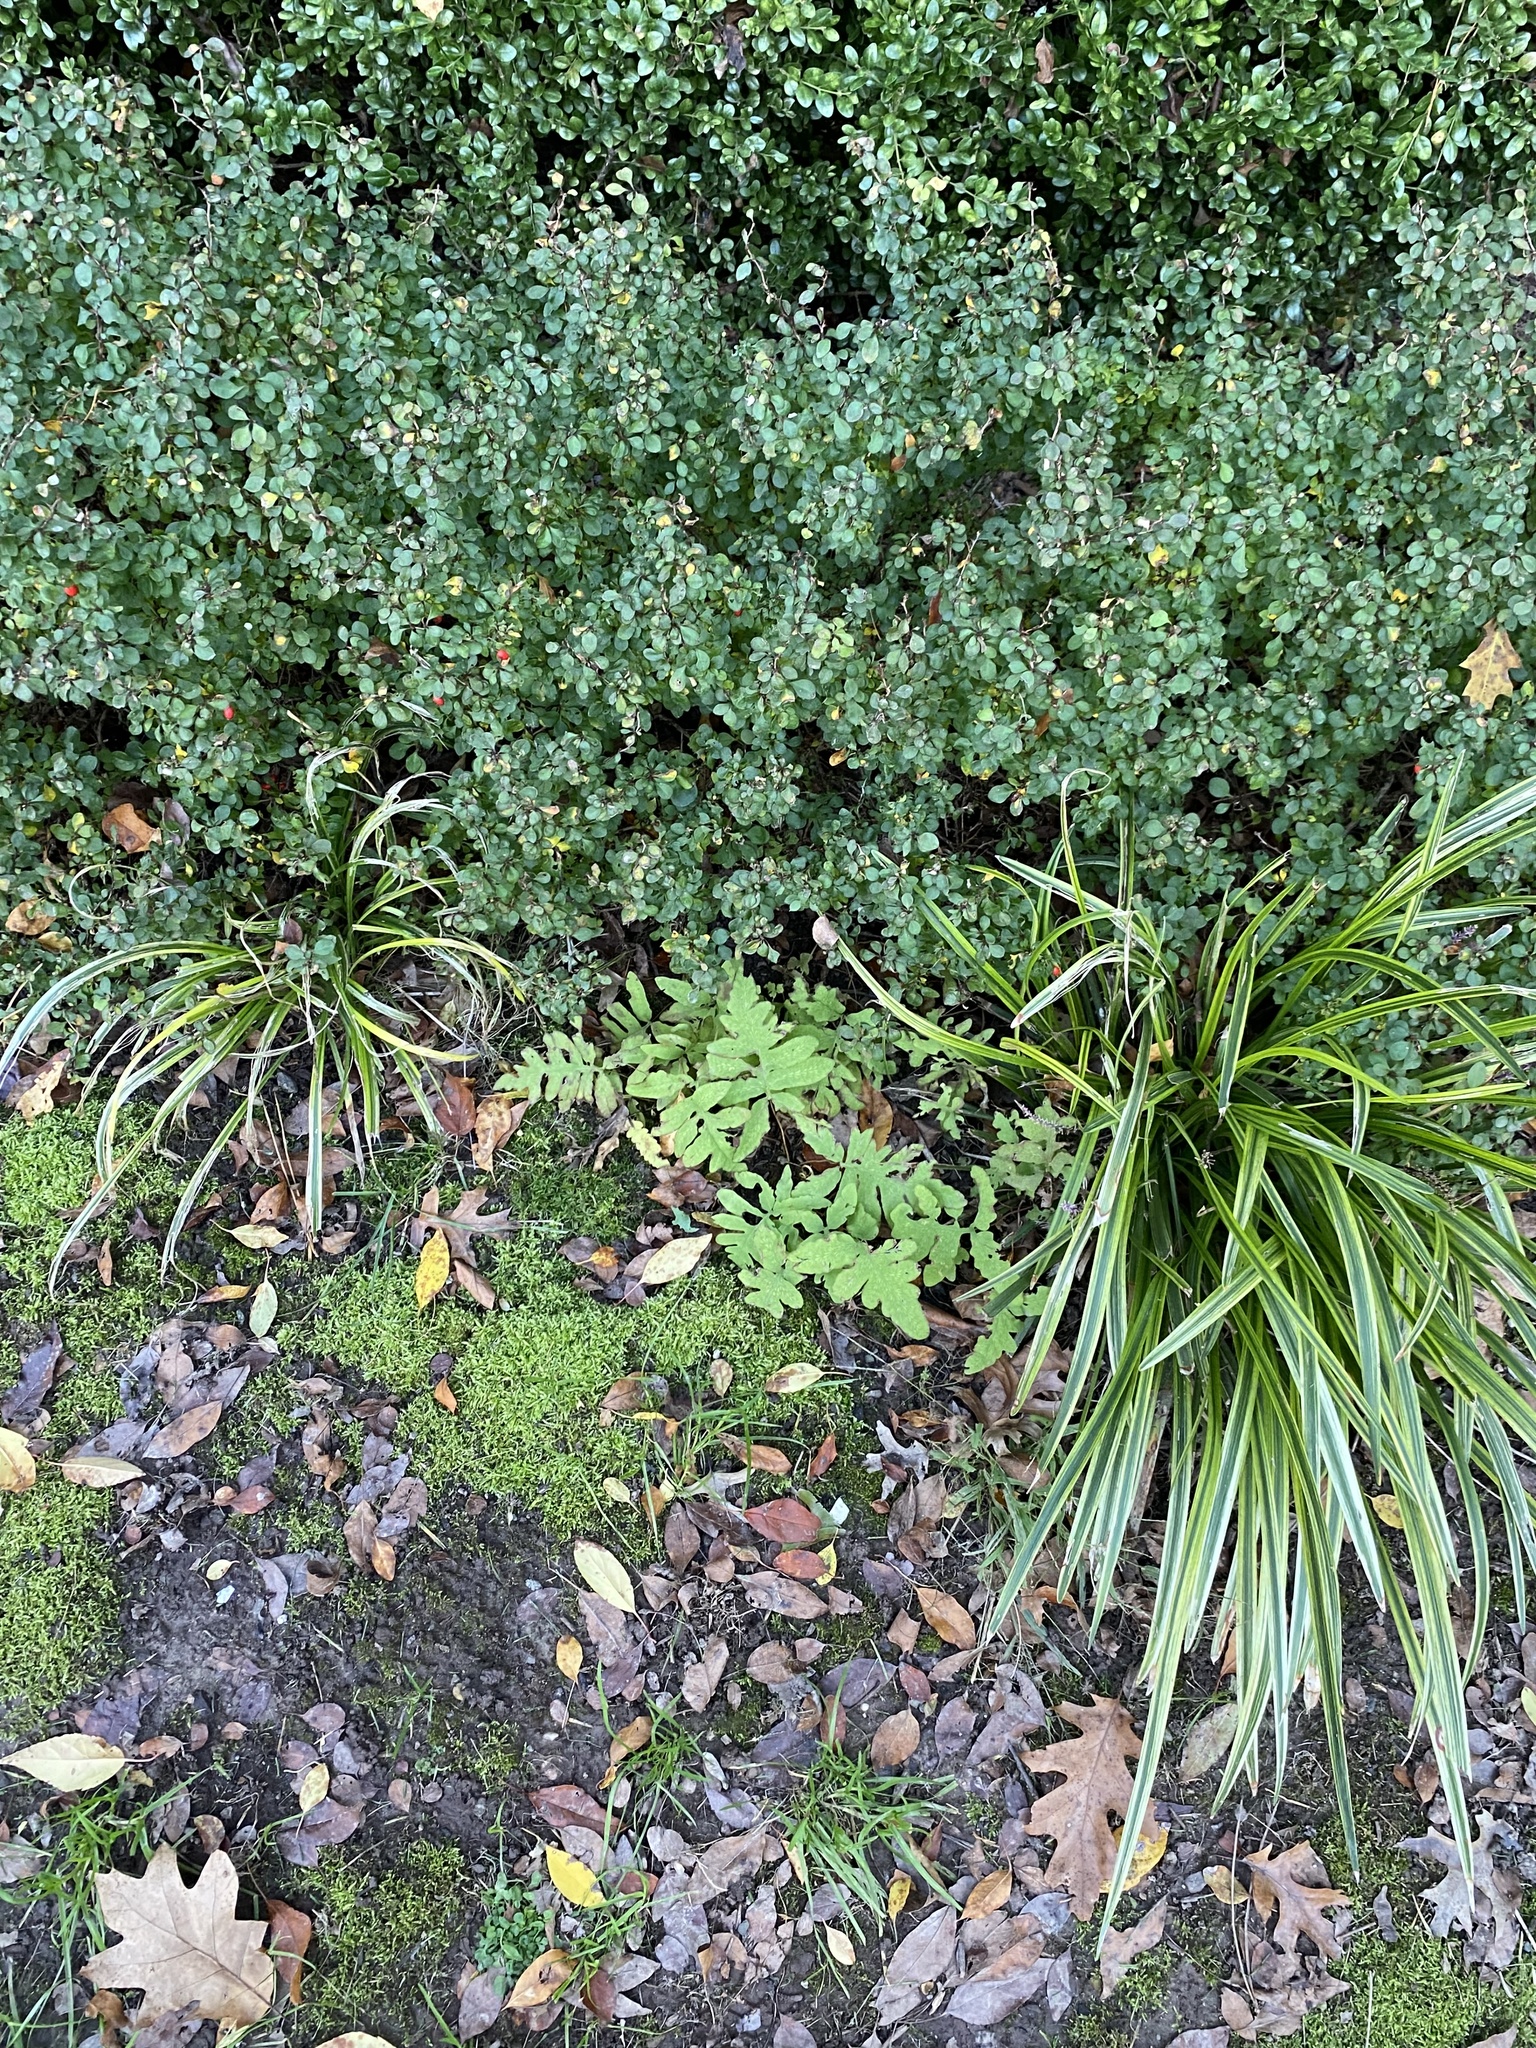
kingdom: Plantae
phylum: Tracheophyta
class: Polypodiopsida
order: Polypodiales
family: Onocleaceae
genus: Onoclea
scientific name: Onoclea sensibilis
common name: Sensitive fern
